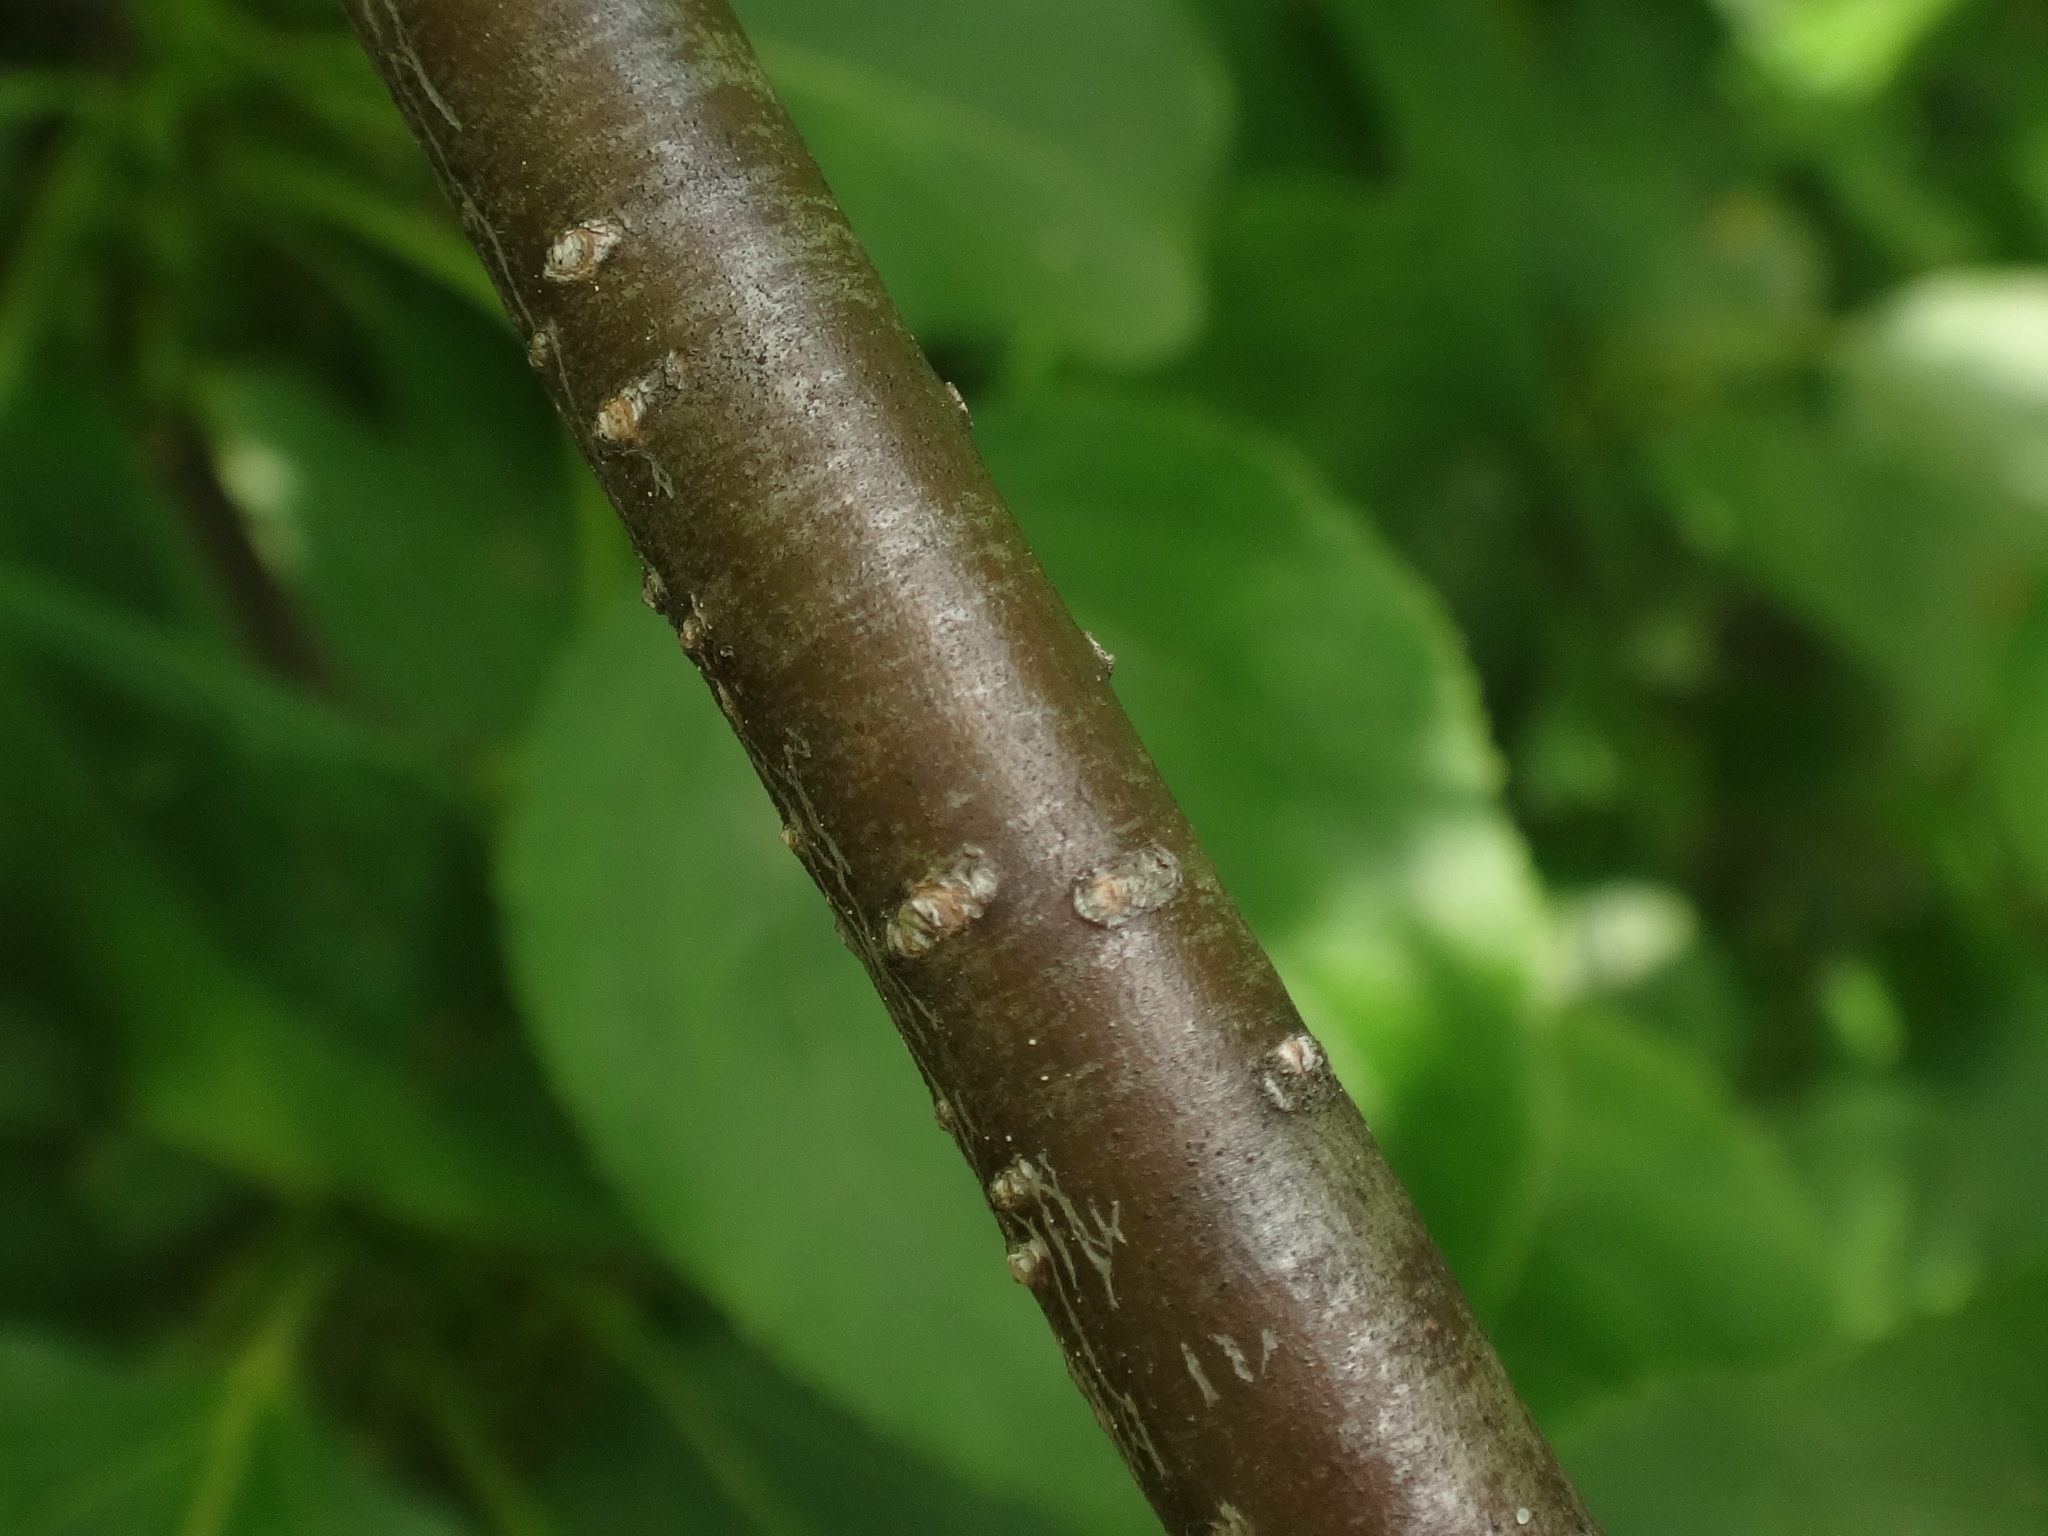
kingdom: Plantae
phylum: Tracheophyta
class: Magnoliopsida
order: Rosales
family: Rhamnaceae
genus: Rhamnus
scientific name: Rhamnus cathartica
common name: Common buckthorn
